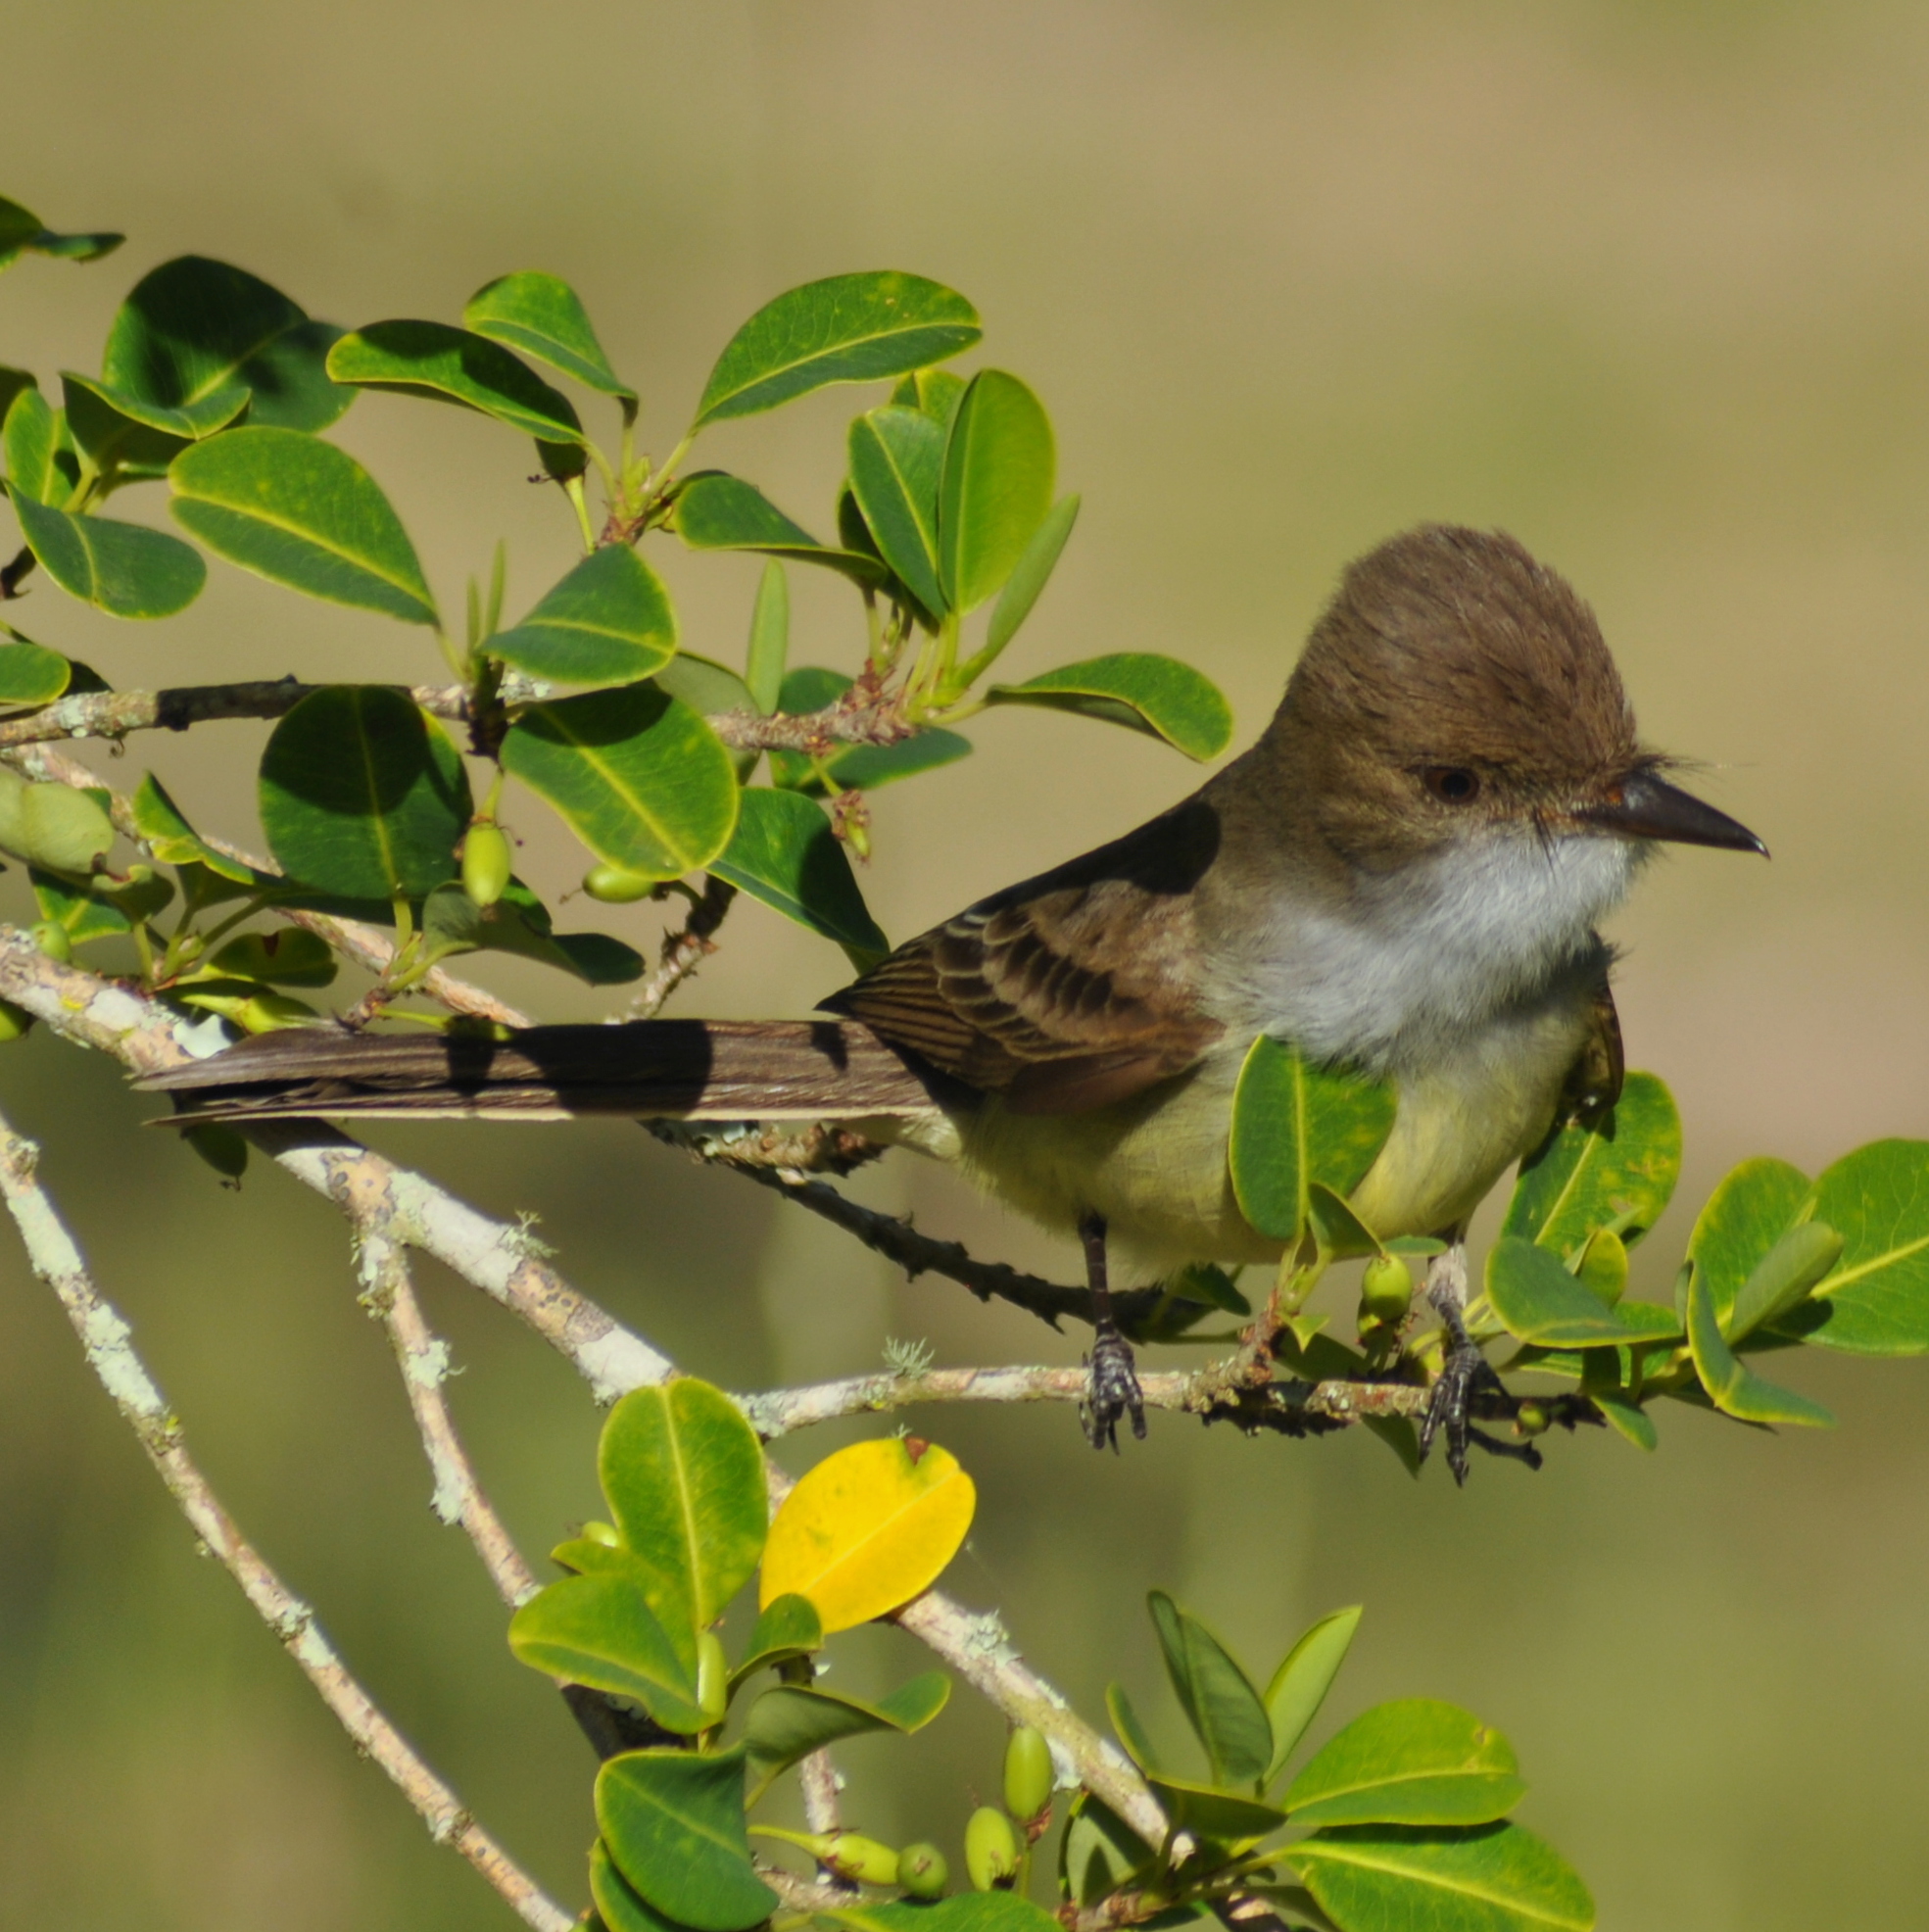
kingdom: Animalia
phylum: Chordata
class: Aves
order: Passeriformes
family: Tyrannidae
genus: Myiarchus
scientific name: Myiarchus swainsoni
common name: Swainson's flycatcher
